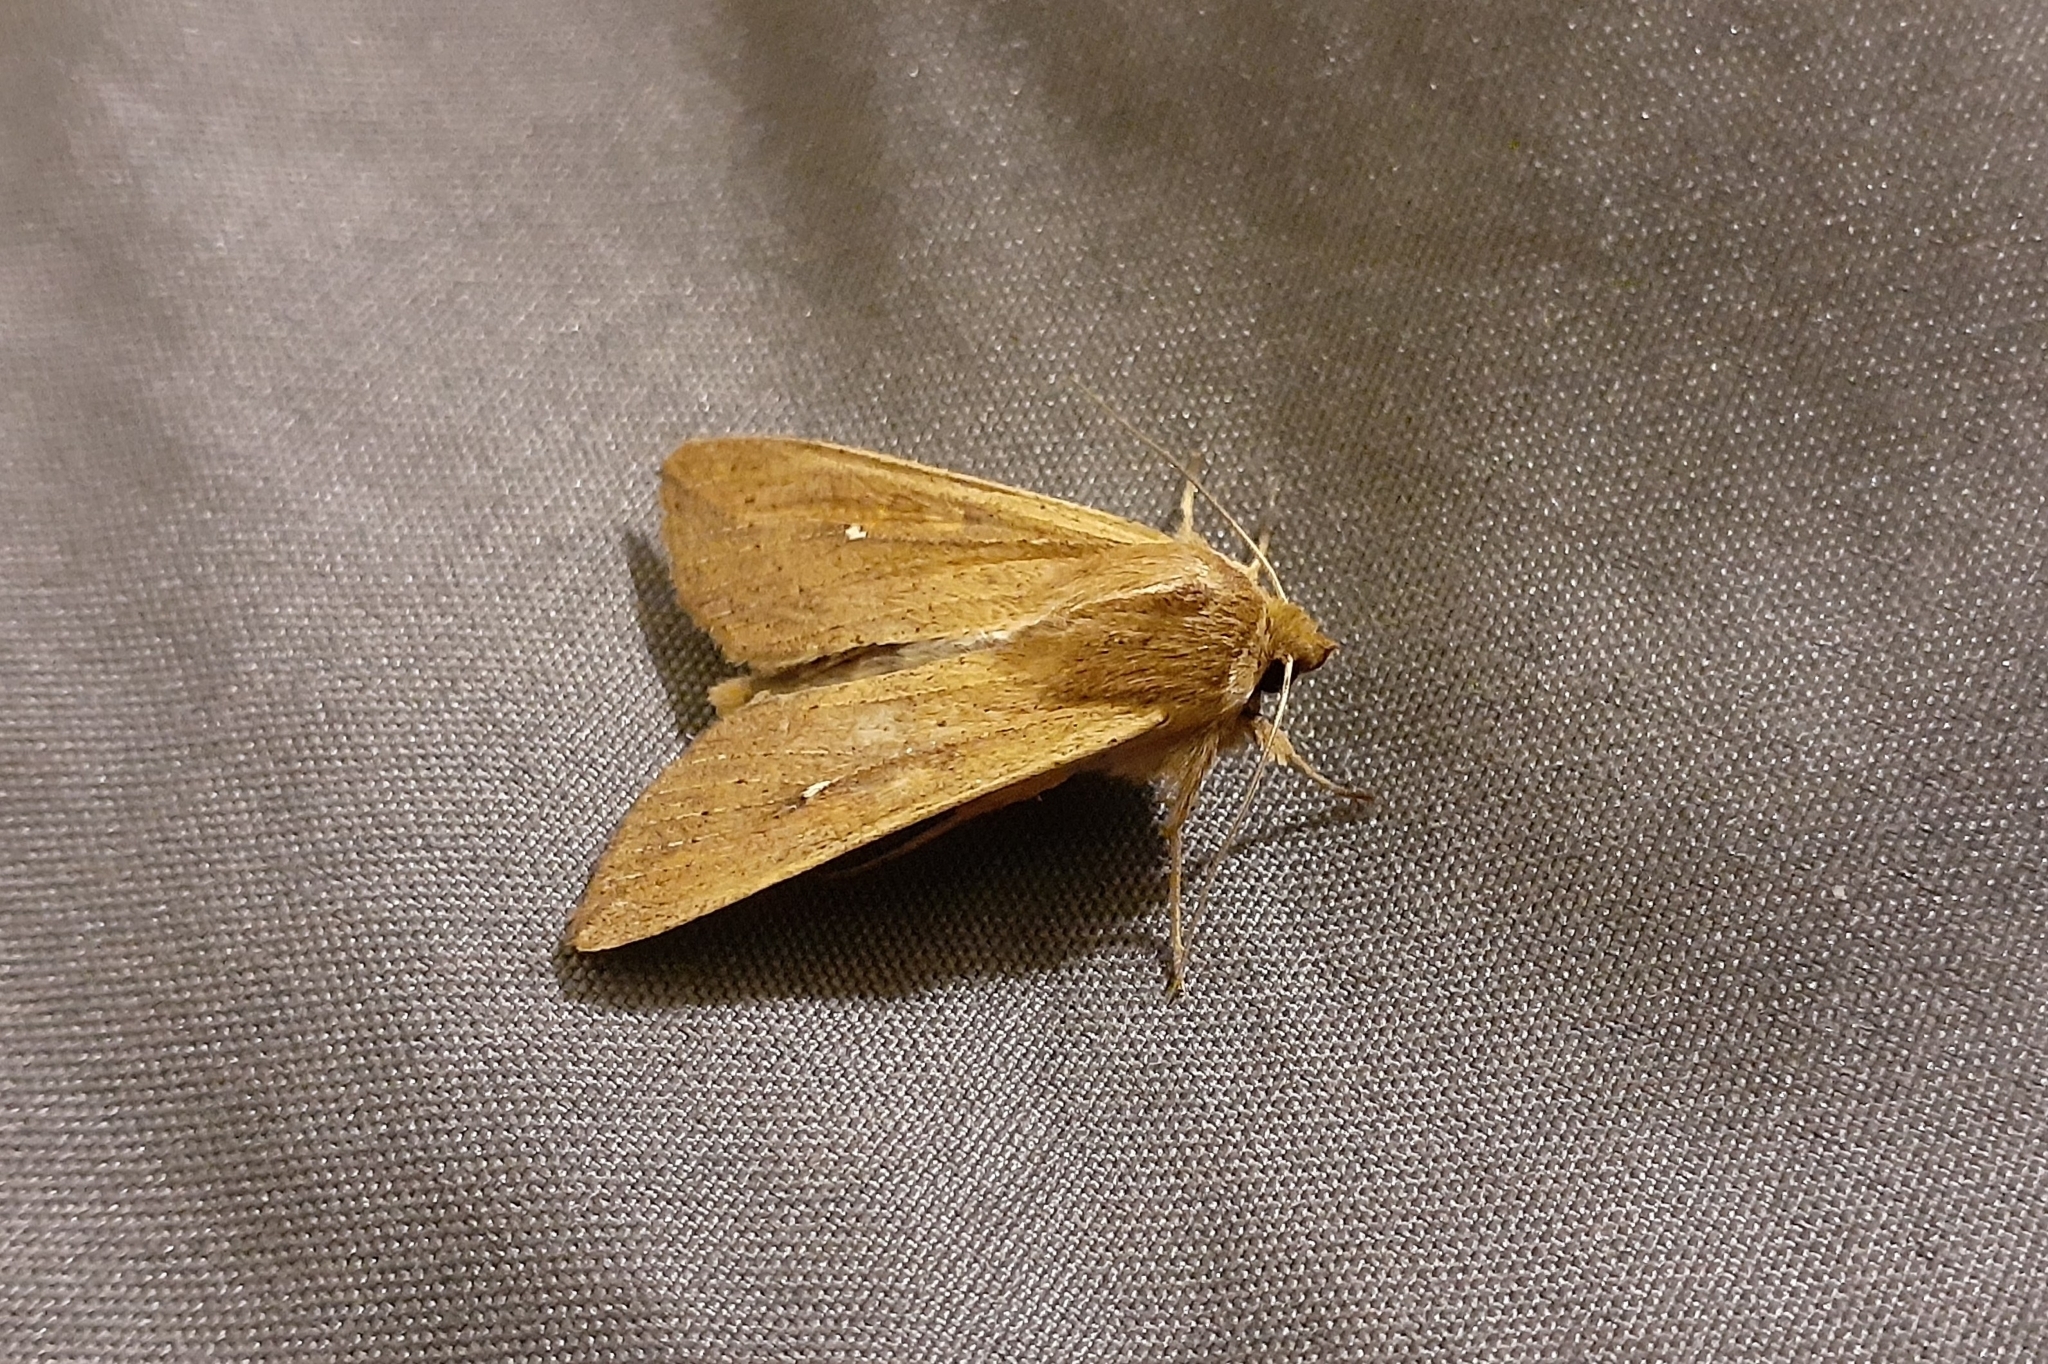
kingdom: Animalia
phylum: Arthropoda
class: Insecta
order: Lepidoptera
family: Noctuidae
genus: Mythimna
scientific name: Mythimna unipuncta
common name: White-speck
